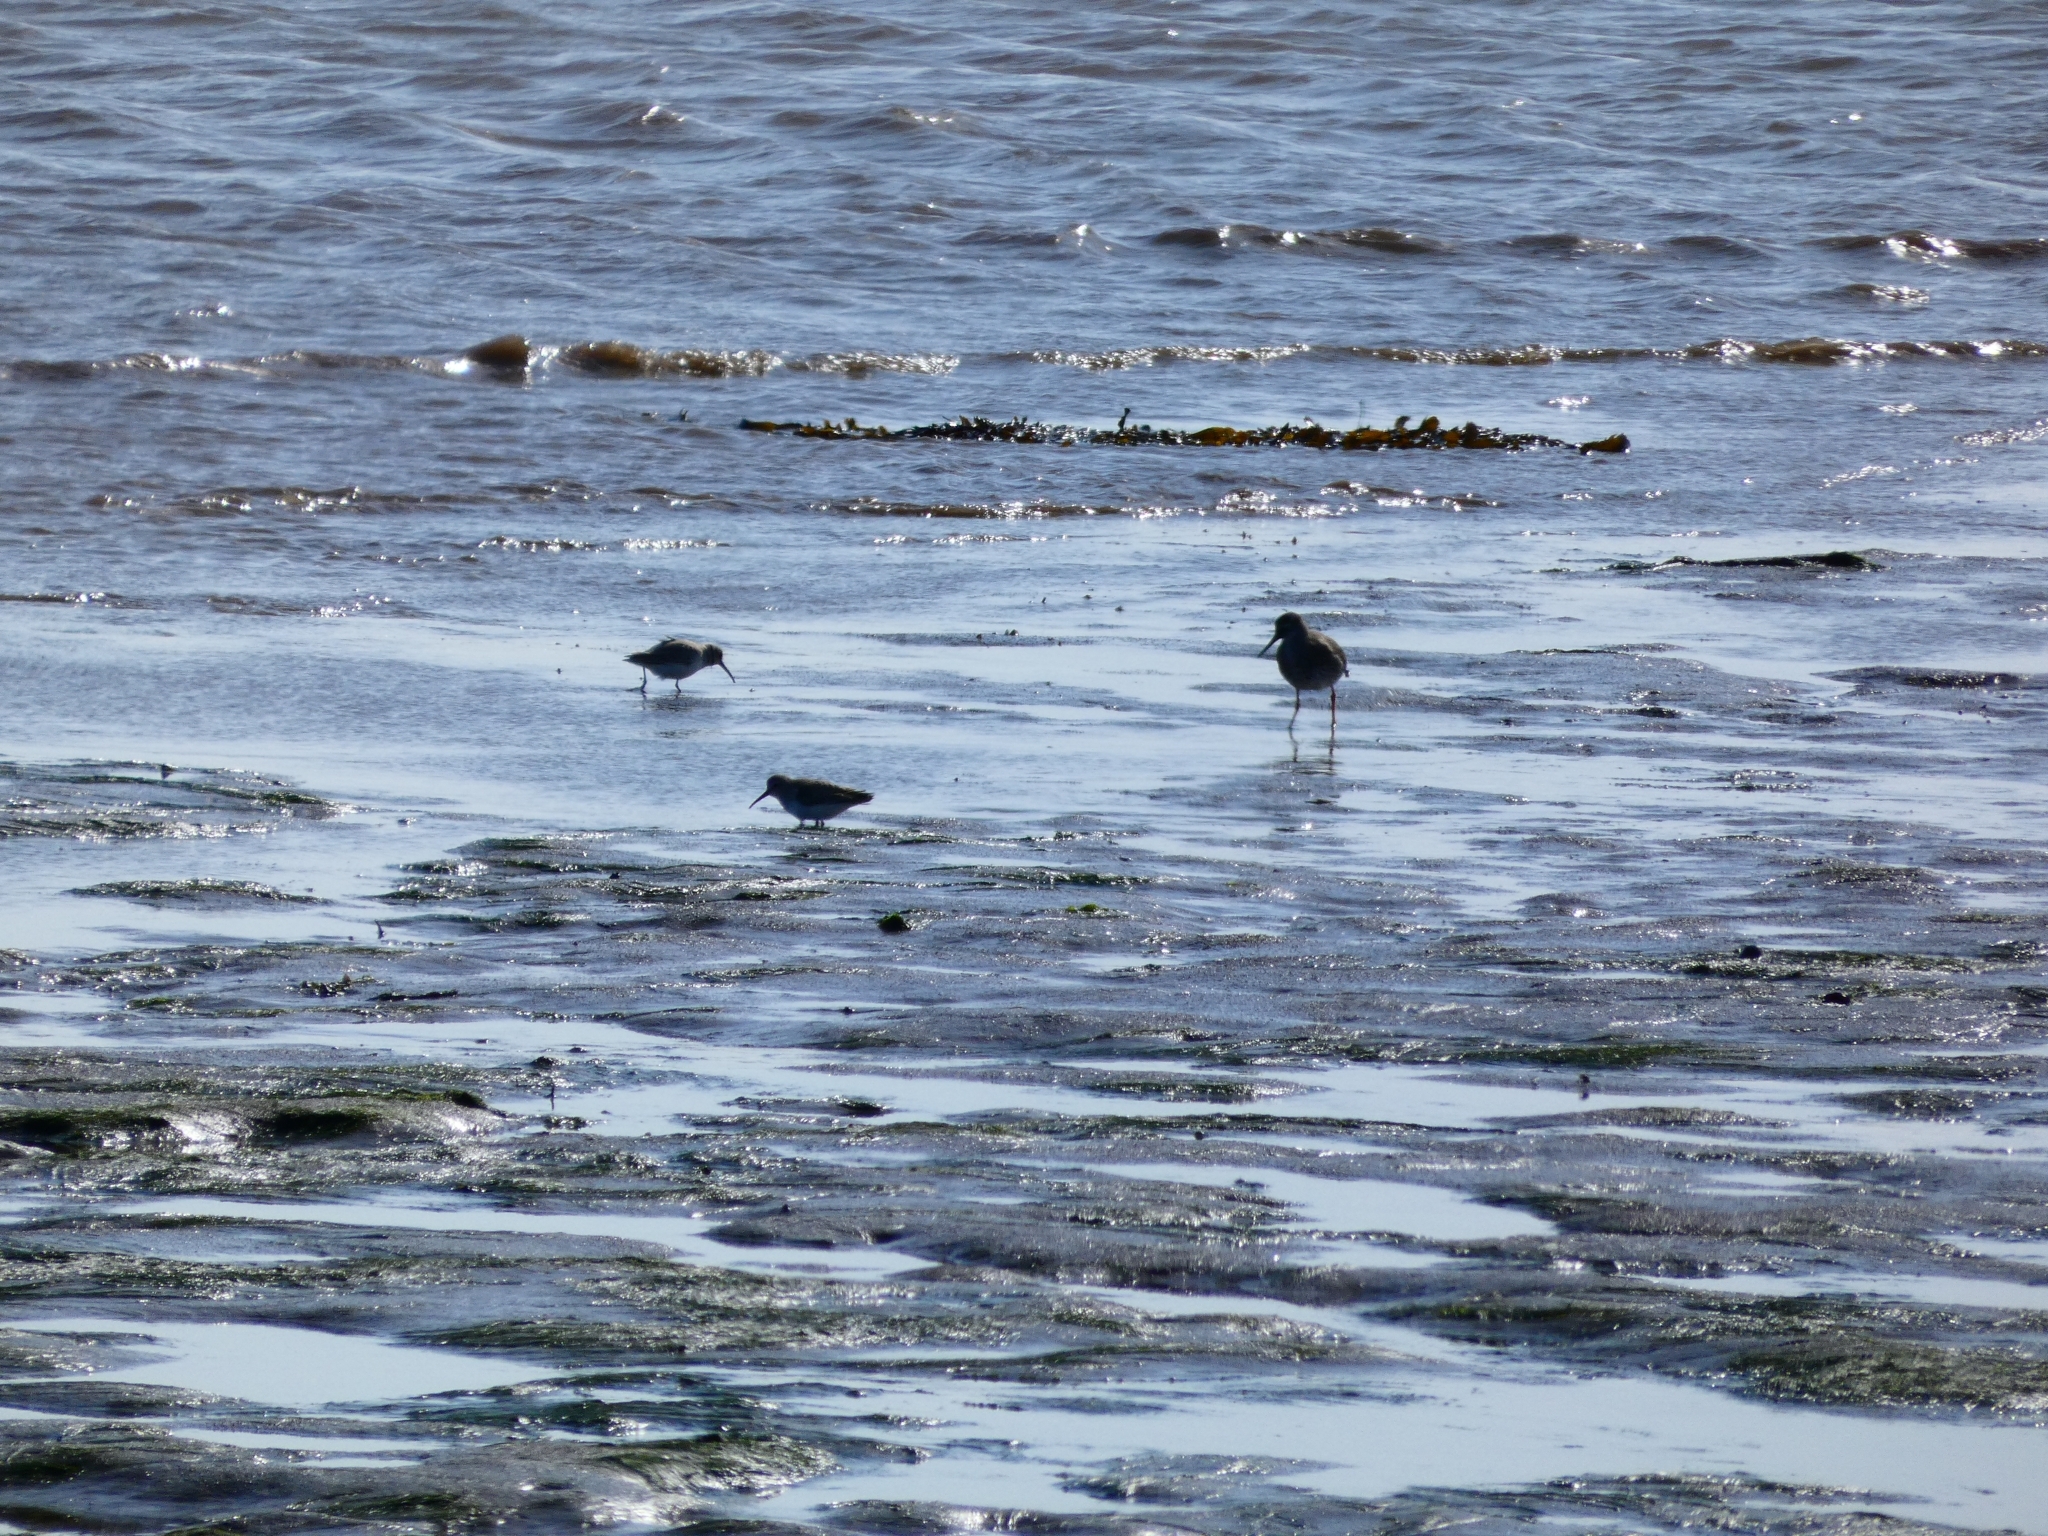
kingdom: Animalia
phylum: Chordata
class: Aves
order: Charadriiformes
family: Scolopacidae
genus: Calidris
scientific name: Calidris alpina
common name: Dunlin
